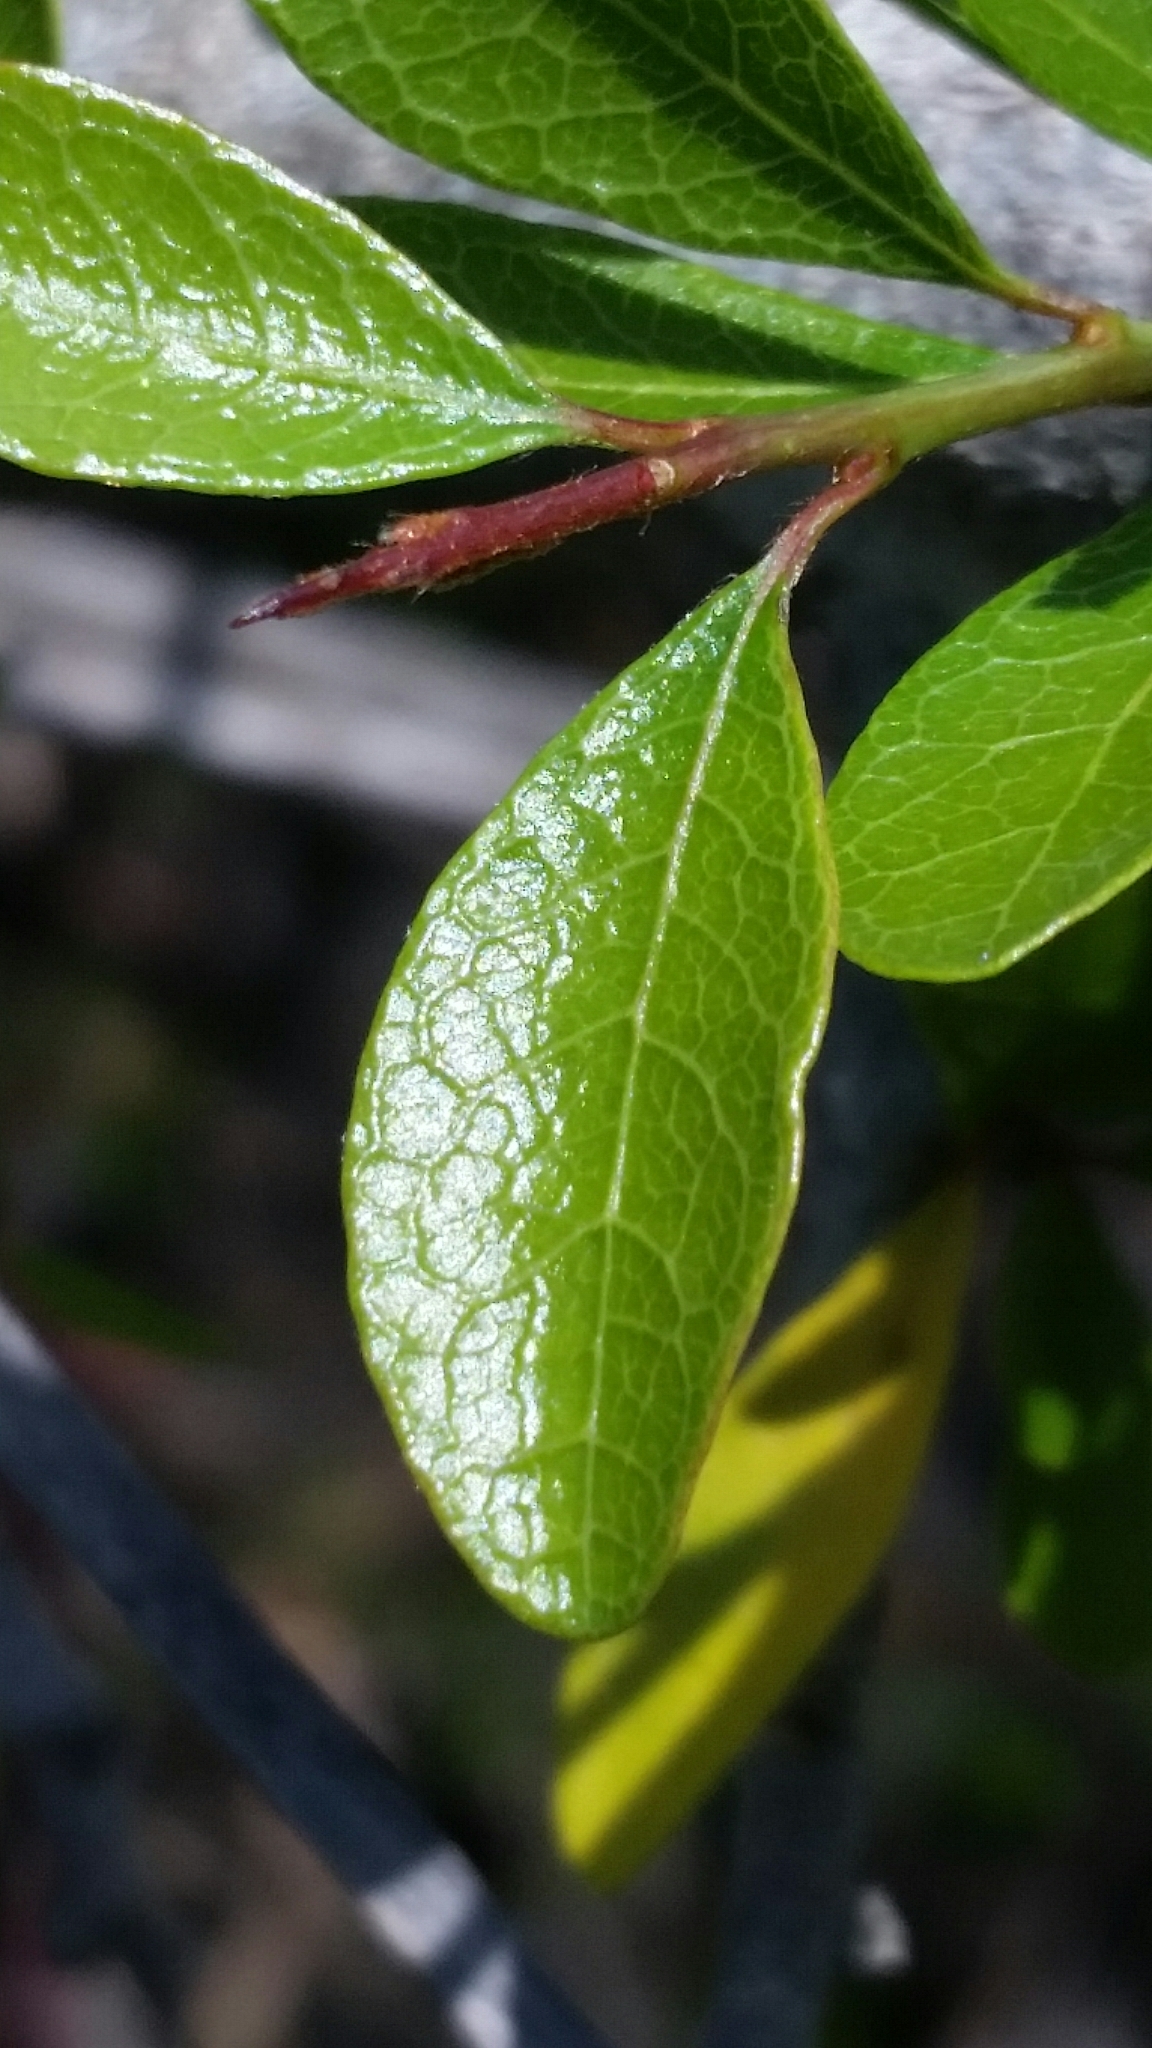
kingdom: Plantae
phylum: Tracheophyta
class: Magnoliopsida
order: Ericales
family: Sapotaceae
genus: Sideroxylon
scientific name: Sideroxylon reclinatum
